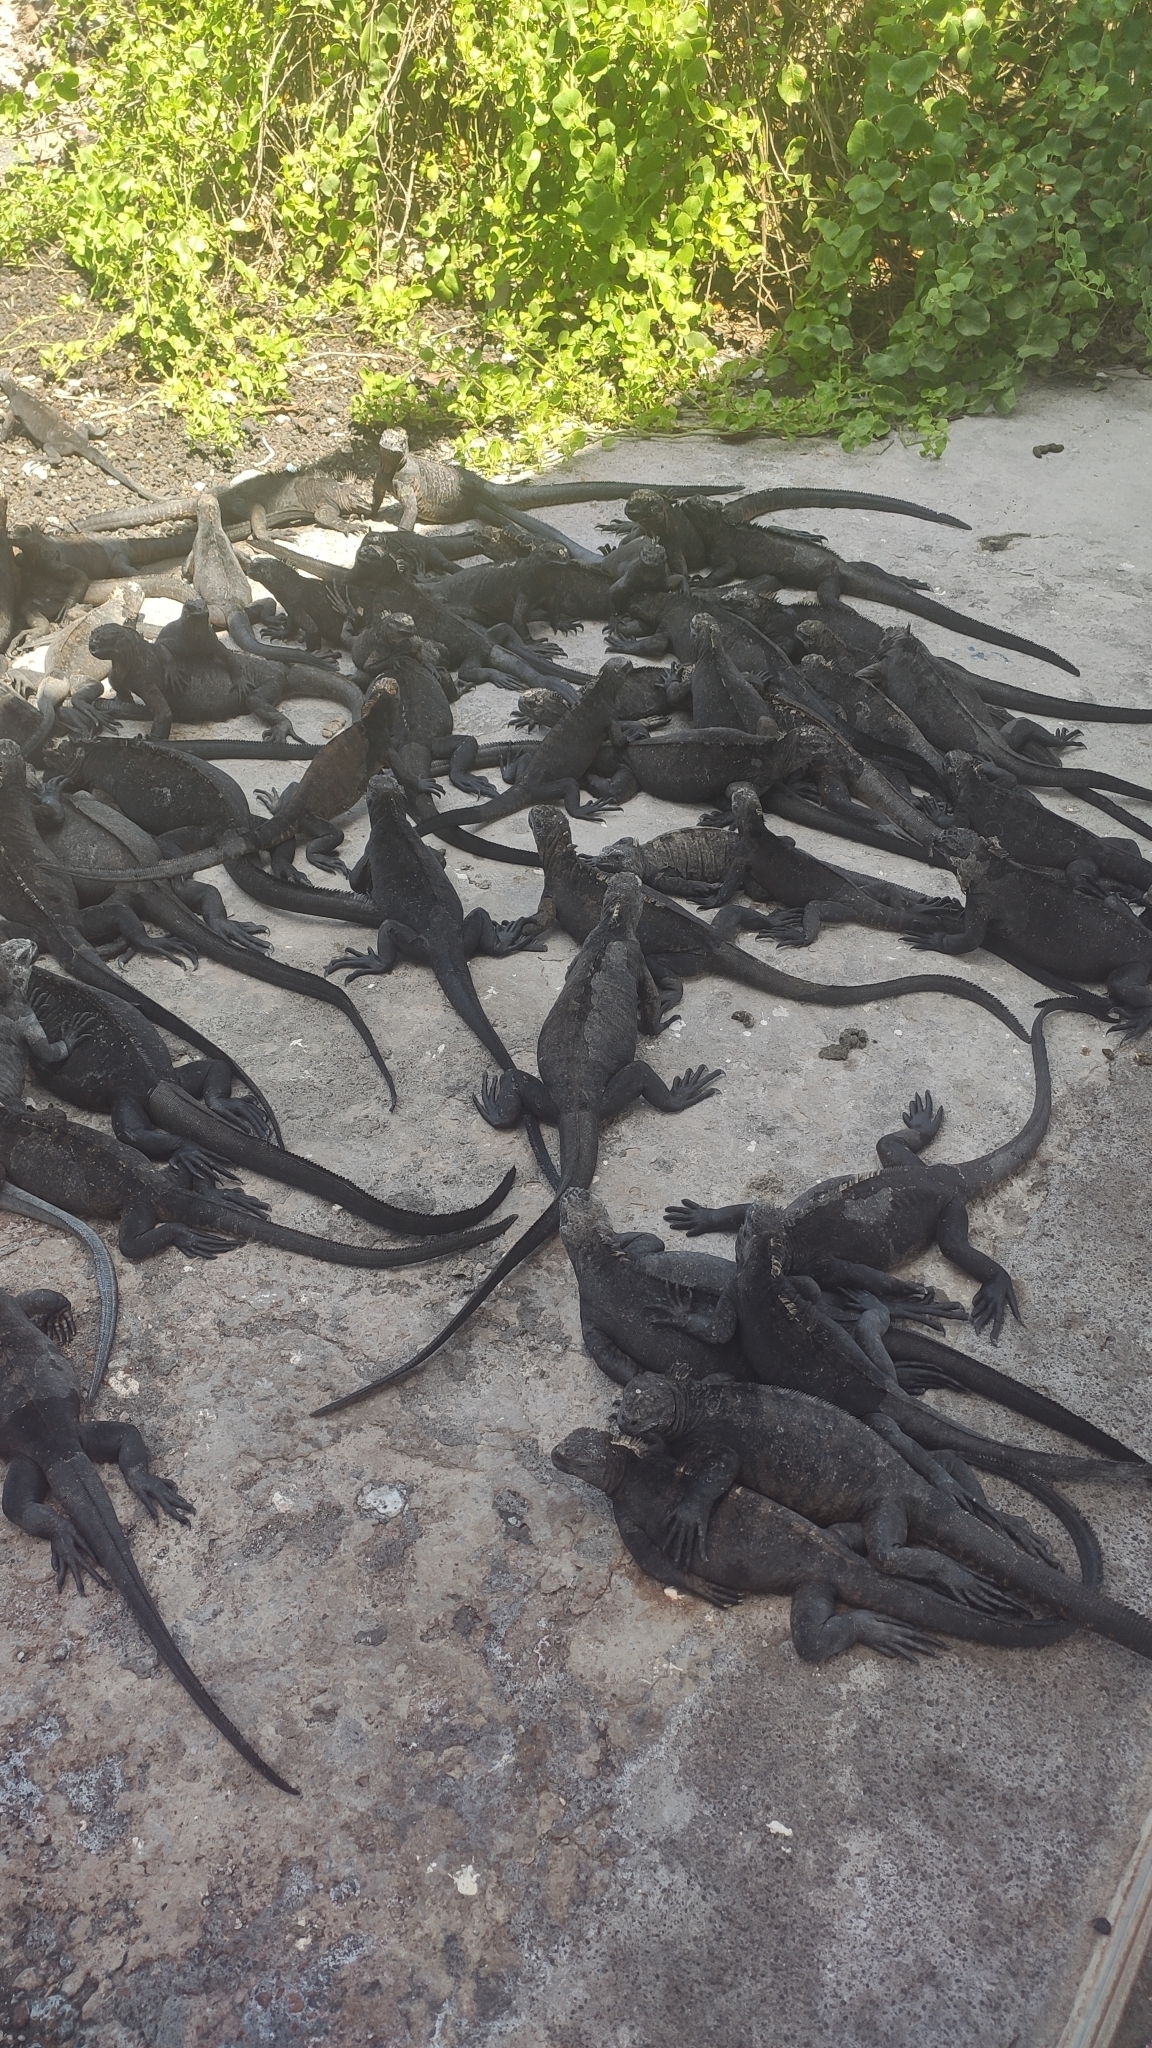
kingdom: Animalia
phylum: Chordata
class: Squamata
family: Iguanidae
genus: Amblyrhynchus
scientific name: Amblyrhynchus cristatus
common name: Marine iguana
